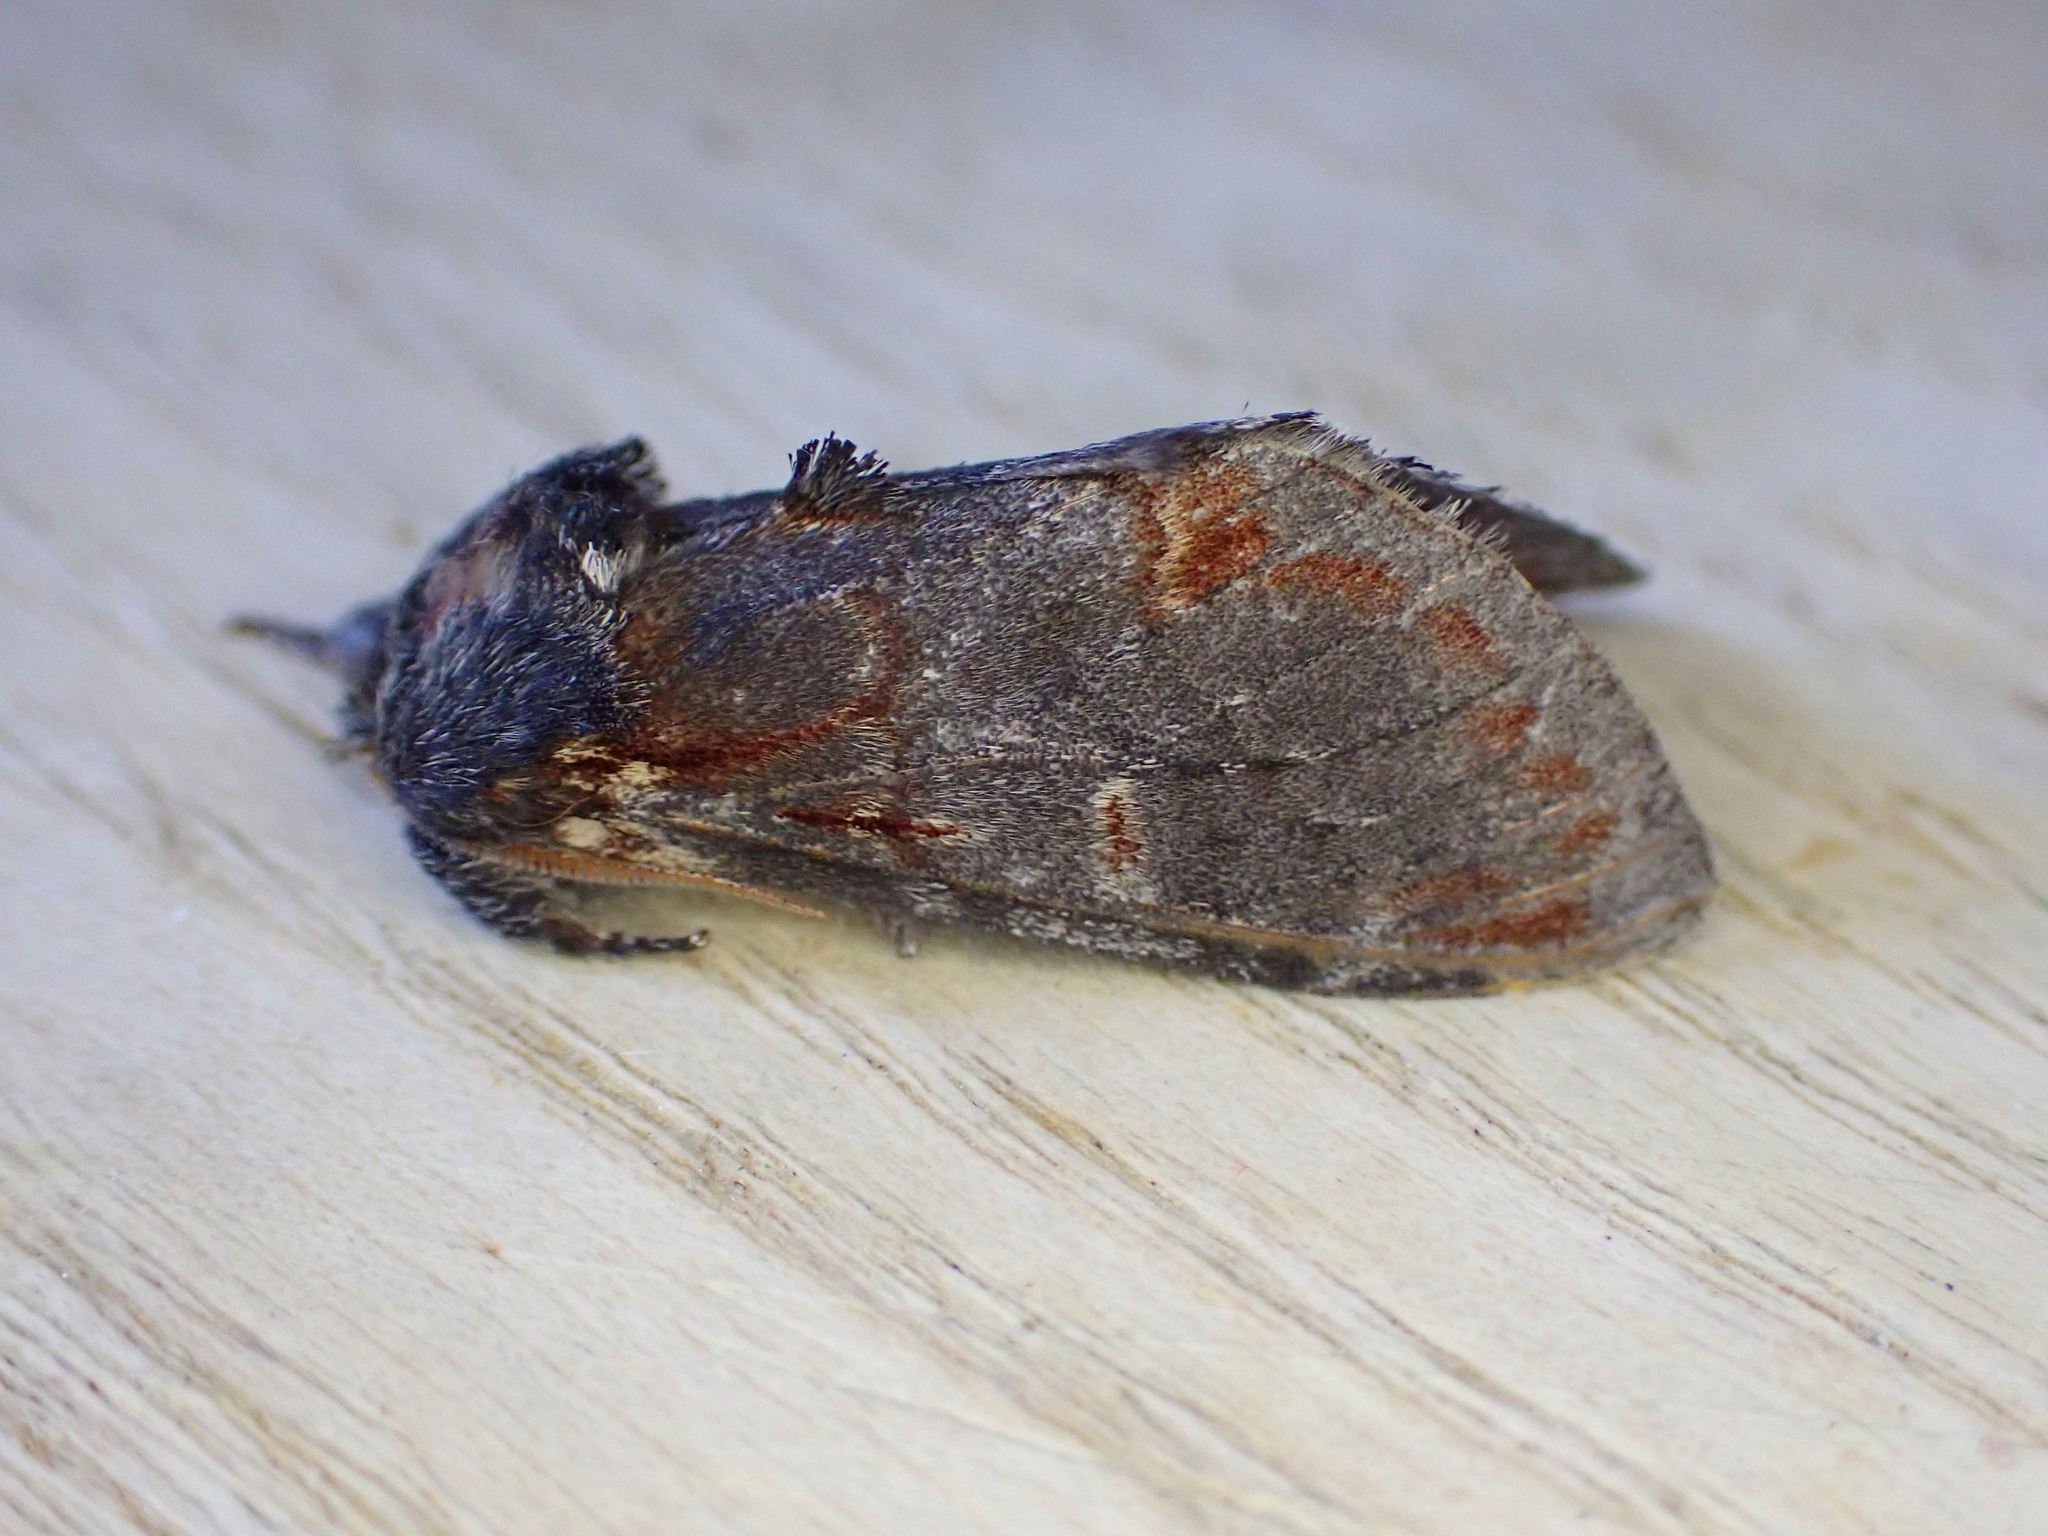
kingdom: Animalia
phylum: Arthropoda
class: Insecta
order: Lepidoptera
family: Notodontidae
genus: Notodonta
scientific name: Notodonta dromedarius
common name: Iron prominent
